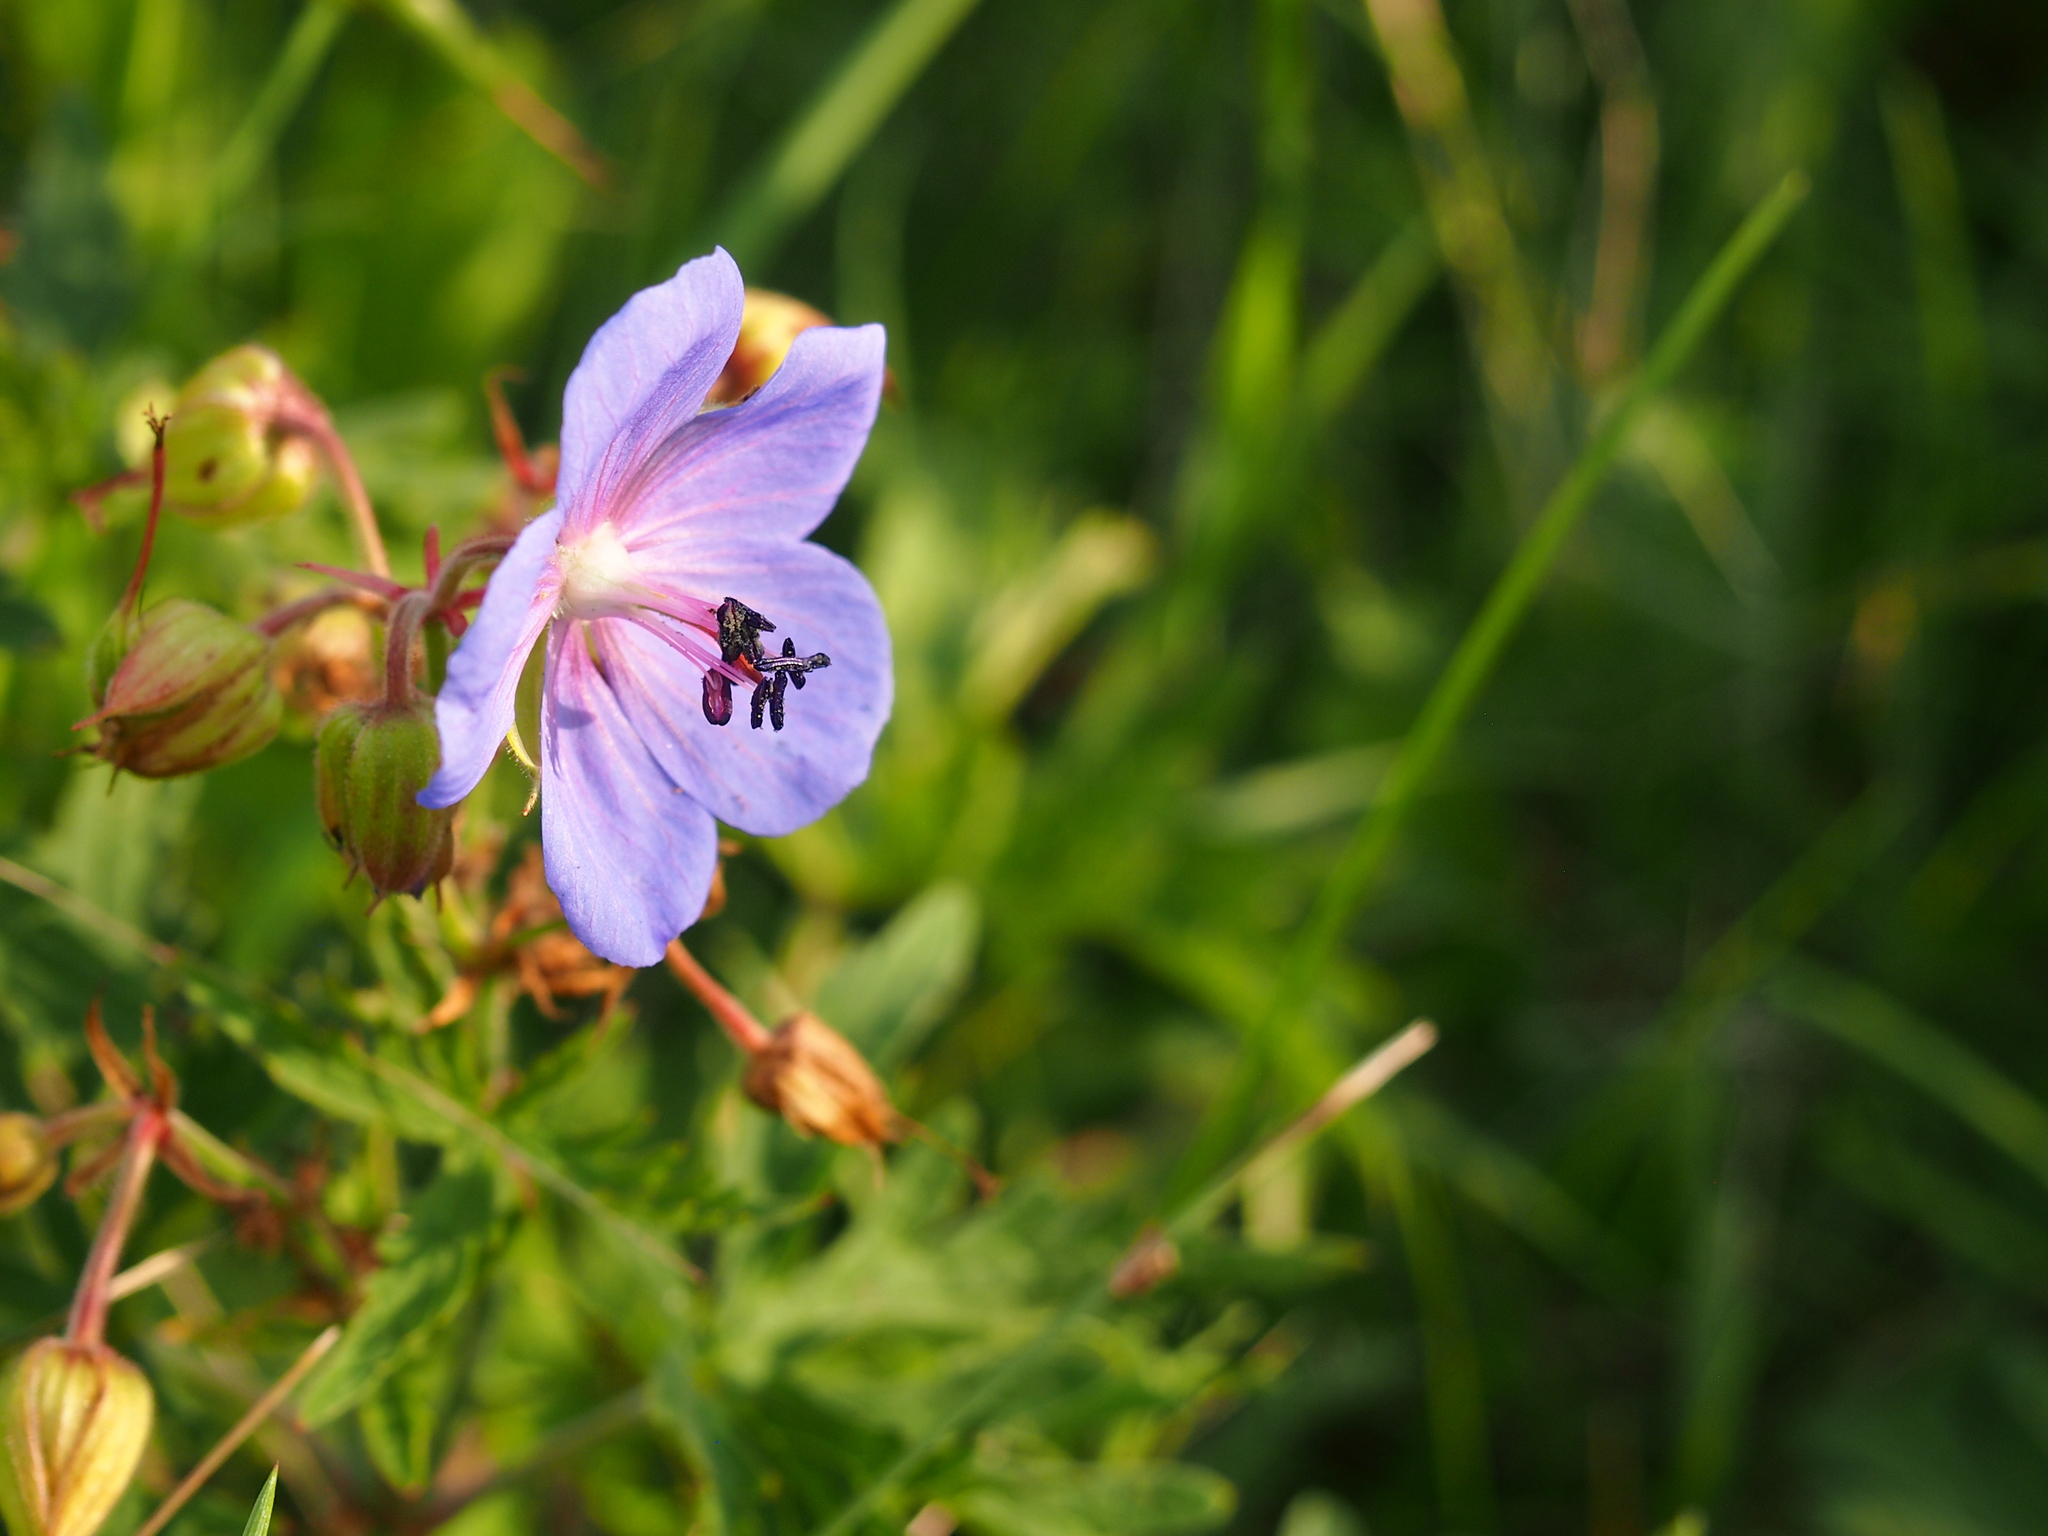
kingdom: Plantae
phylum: Tracheophyta
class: Magnoliopsida
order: Geraniales
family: Geraniaceae
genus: Geranium
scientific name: Geranium pratense
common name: Meadow crane's-bill
